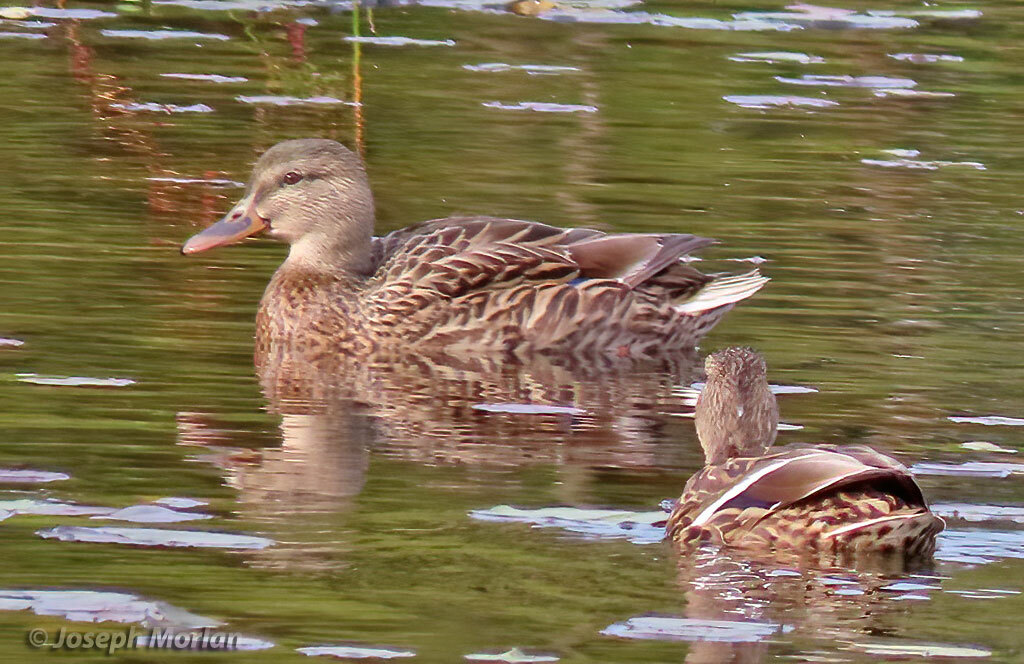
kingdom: Animalia
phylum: Chordata
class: Aves
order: Anseriformes
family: Anatidae
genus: Anas
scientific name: Anas platyrhynchos
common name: Mallard
